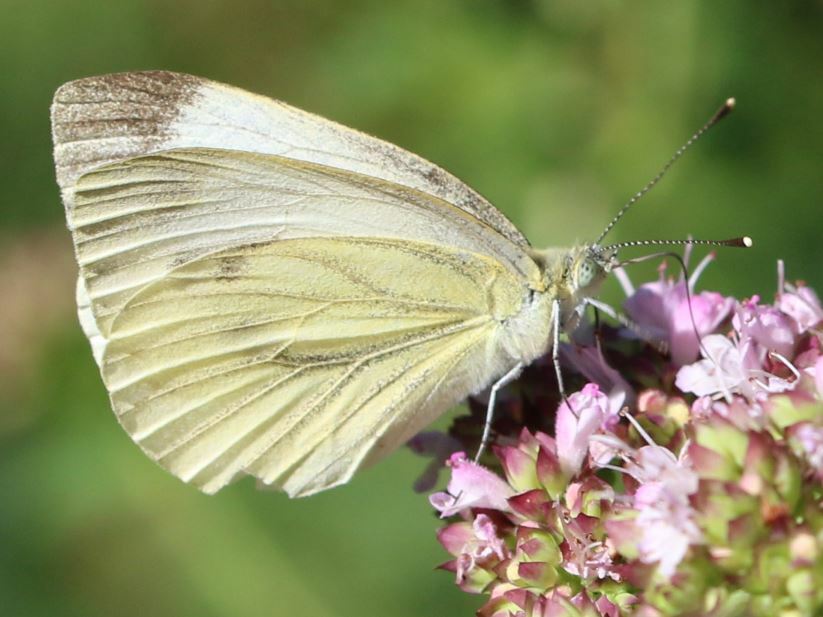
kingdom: Animalia
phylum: Arthropoda
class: Insecta
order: Lepidoptera
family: Pieridae
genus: Pieris
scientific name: Pieris napi
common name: Green-veined white
